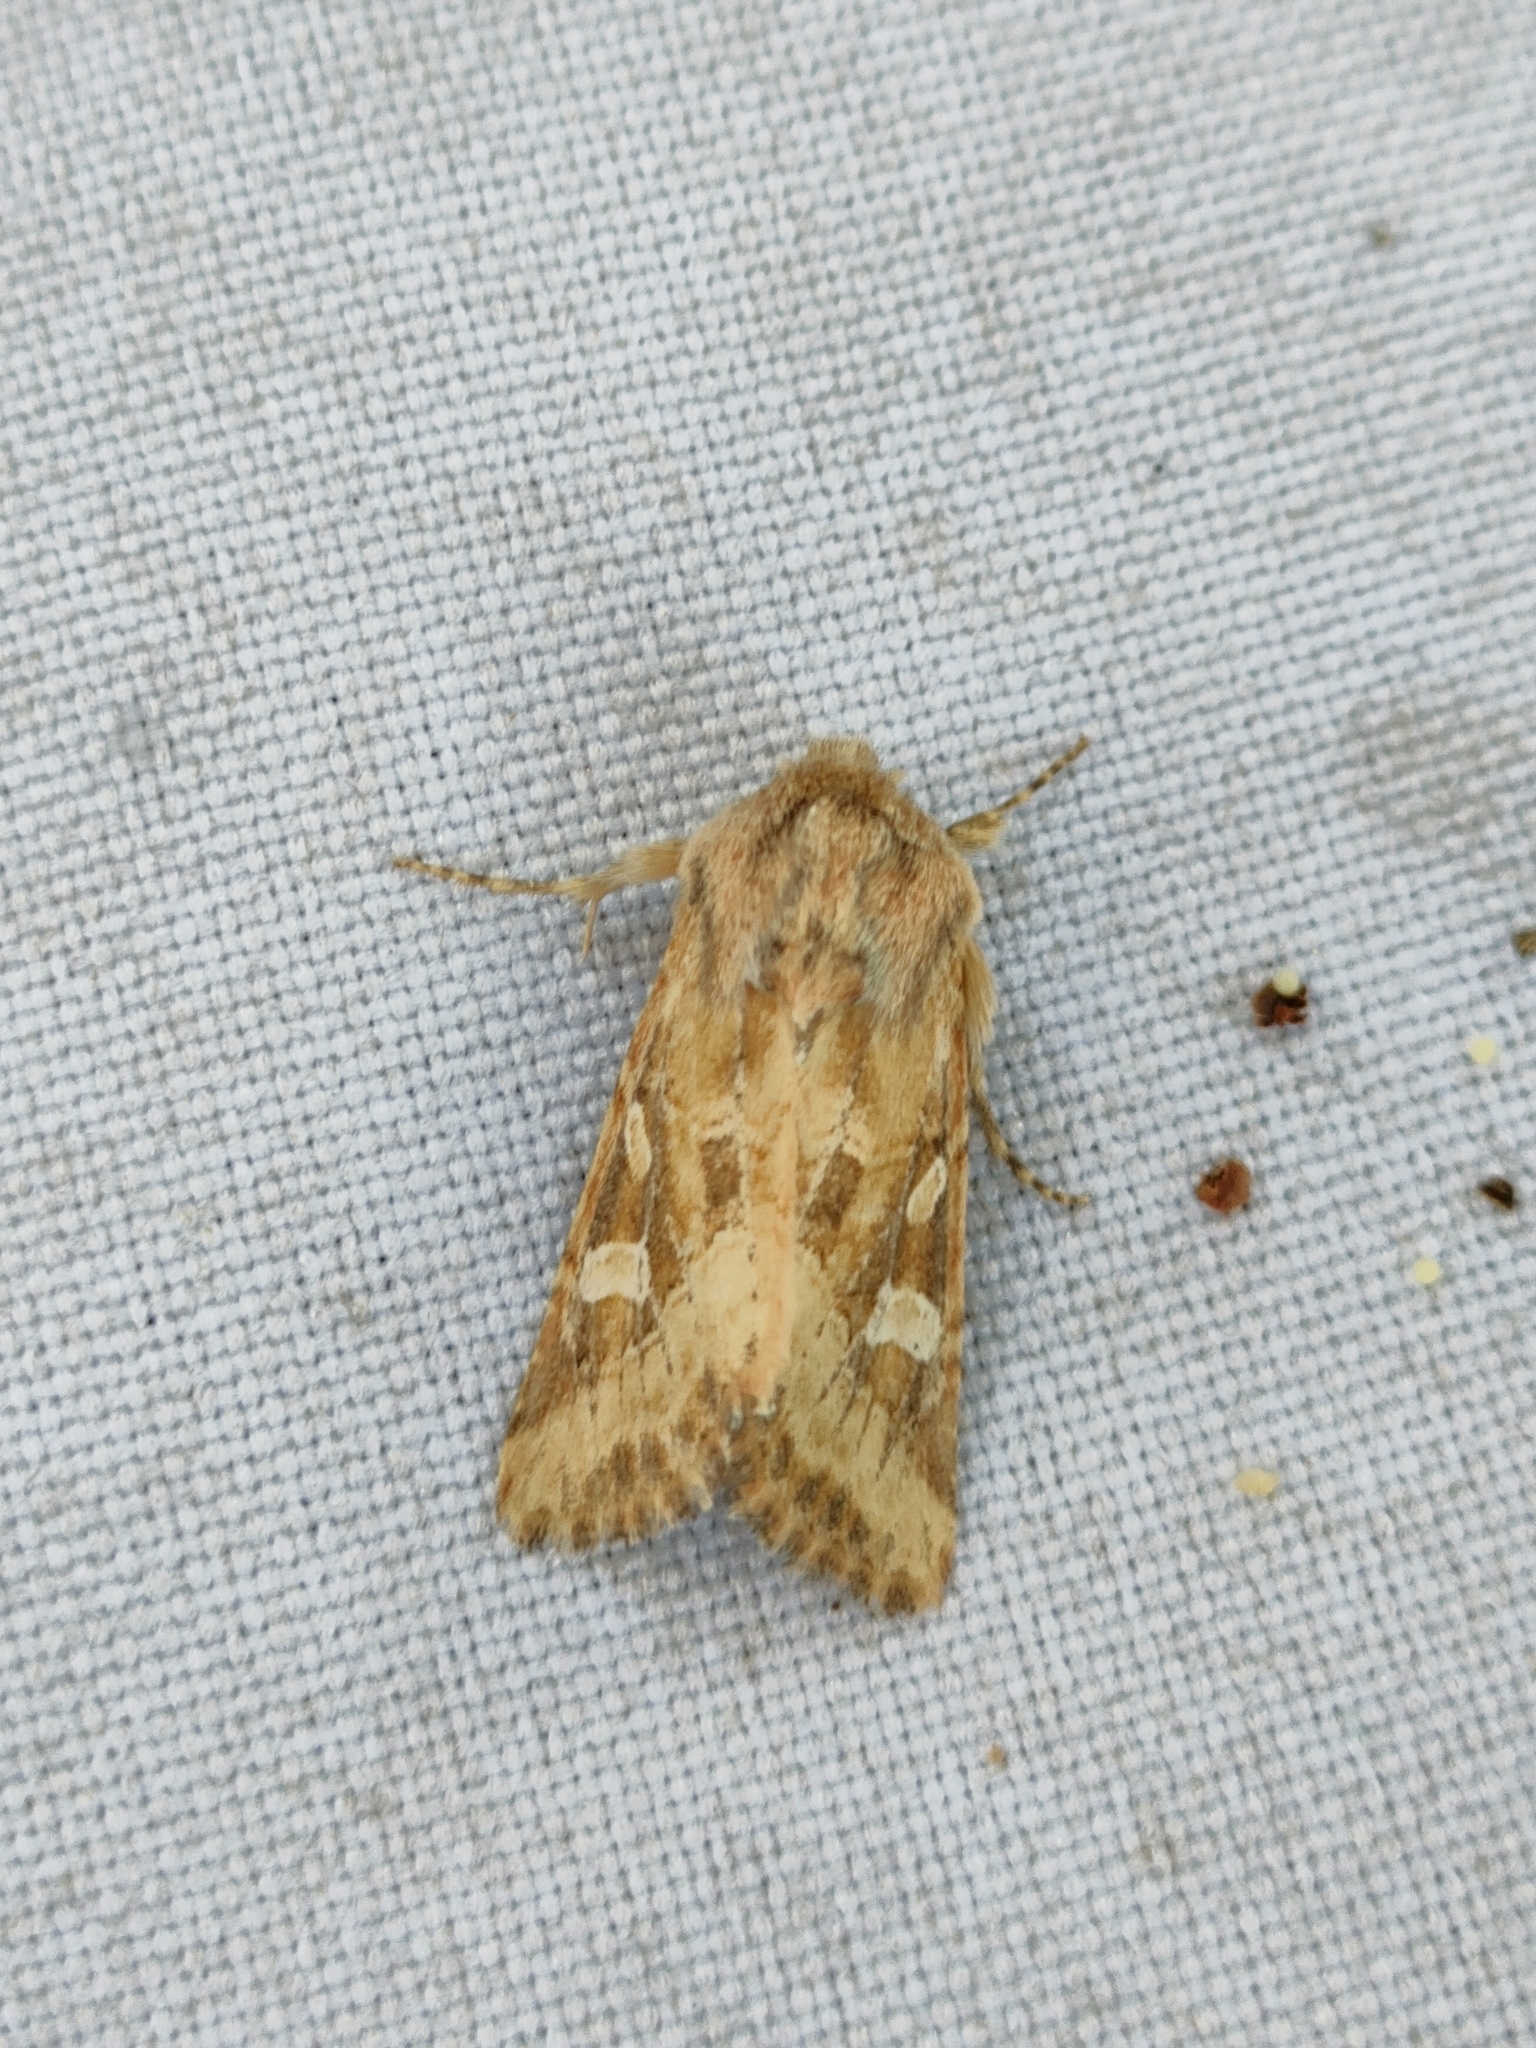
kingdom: Animalia
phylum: Arthropoda
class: Insecta
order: Lepidoptera
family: Noctuidae
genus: Luperina
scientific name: Luperina dumerilii
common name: Dumeril's rustic
